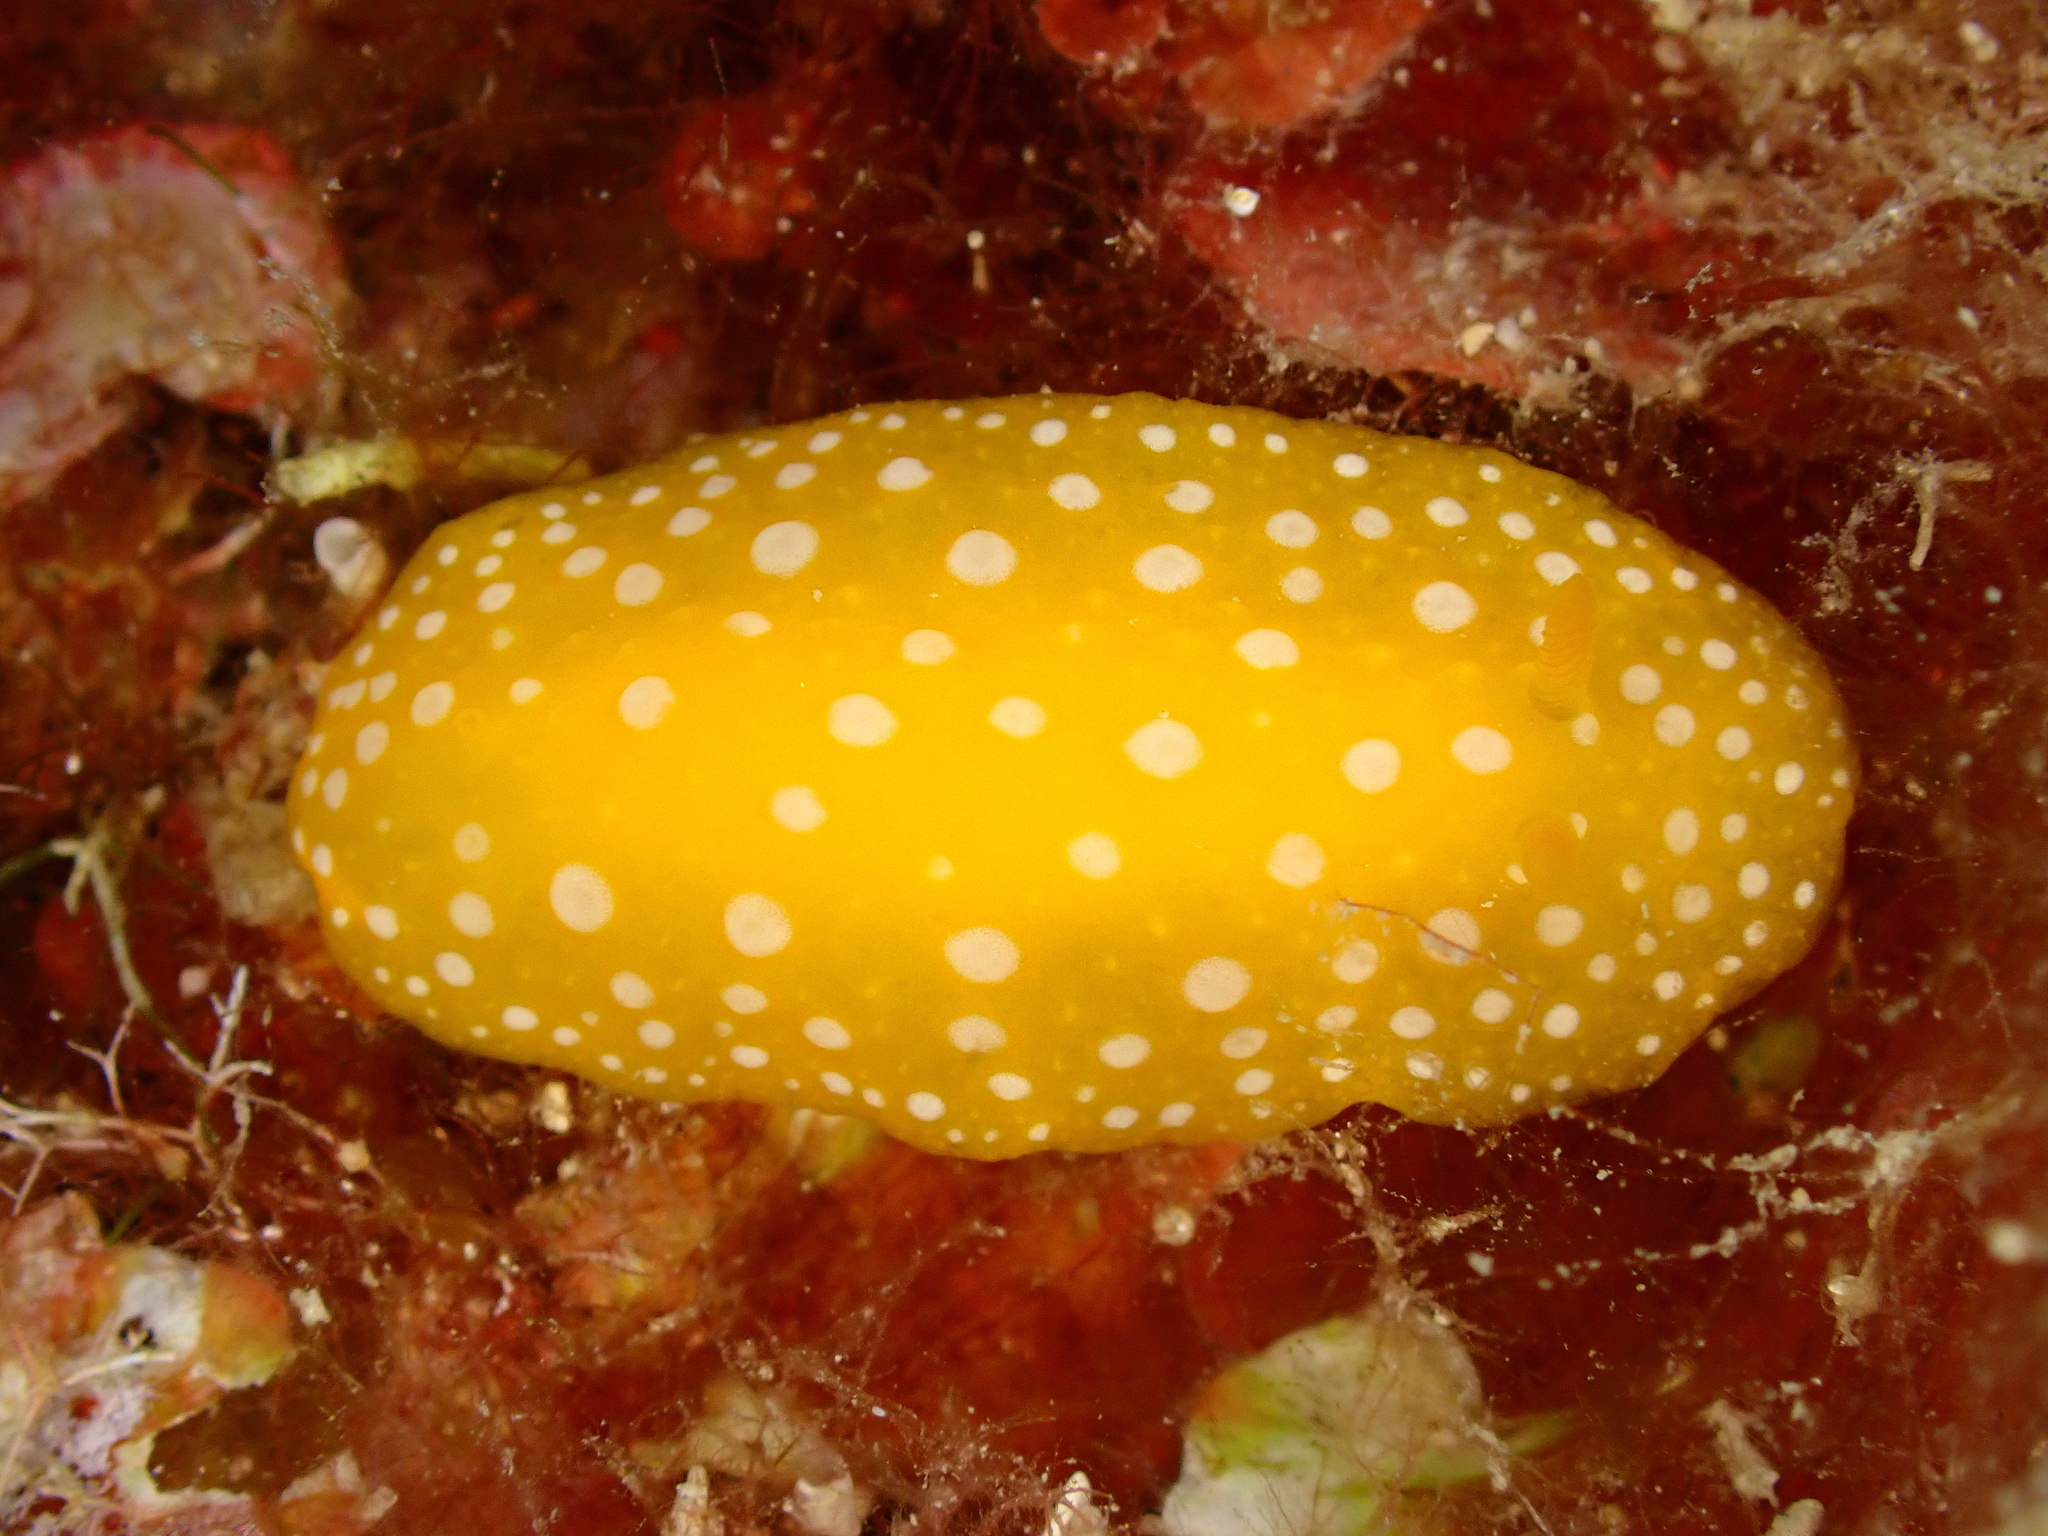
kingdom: Animalia
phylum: Mollusca
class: Gastropoda
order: Nudibranchia
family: Phyllidiidae
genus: Phyllidia
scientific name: Phyllidia flava
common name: White-spotted yellow nudibranch
